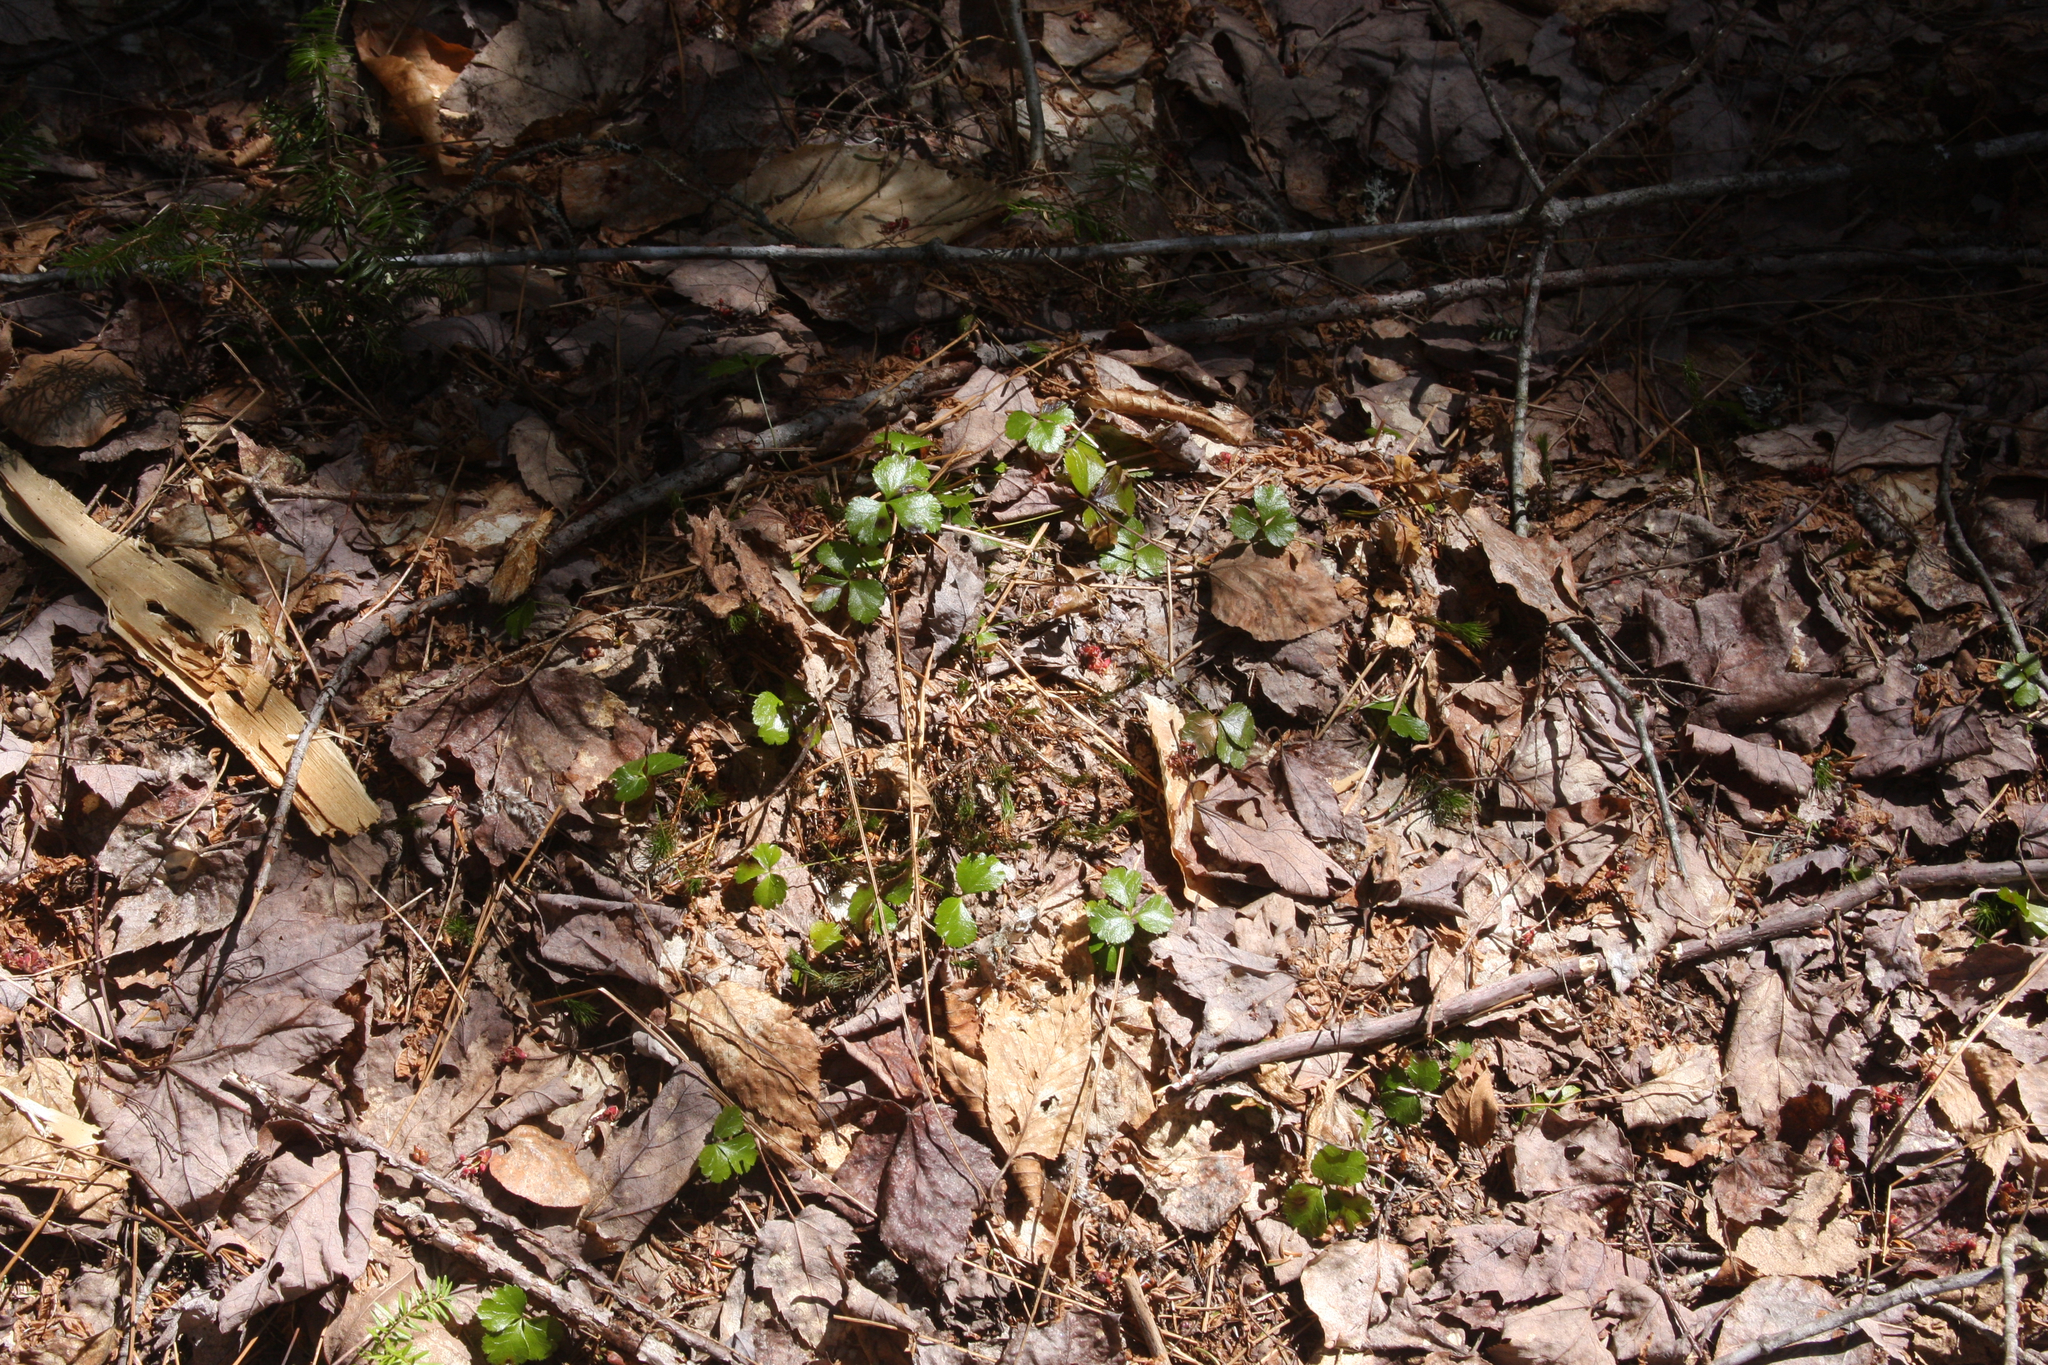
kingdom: Plantae
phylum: Tracheophyta
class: Magnoliopsida
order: Ranunculales
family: Ranunculaceae
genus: Coptis
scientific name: Coptis trifolia
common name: Canker-root
